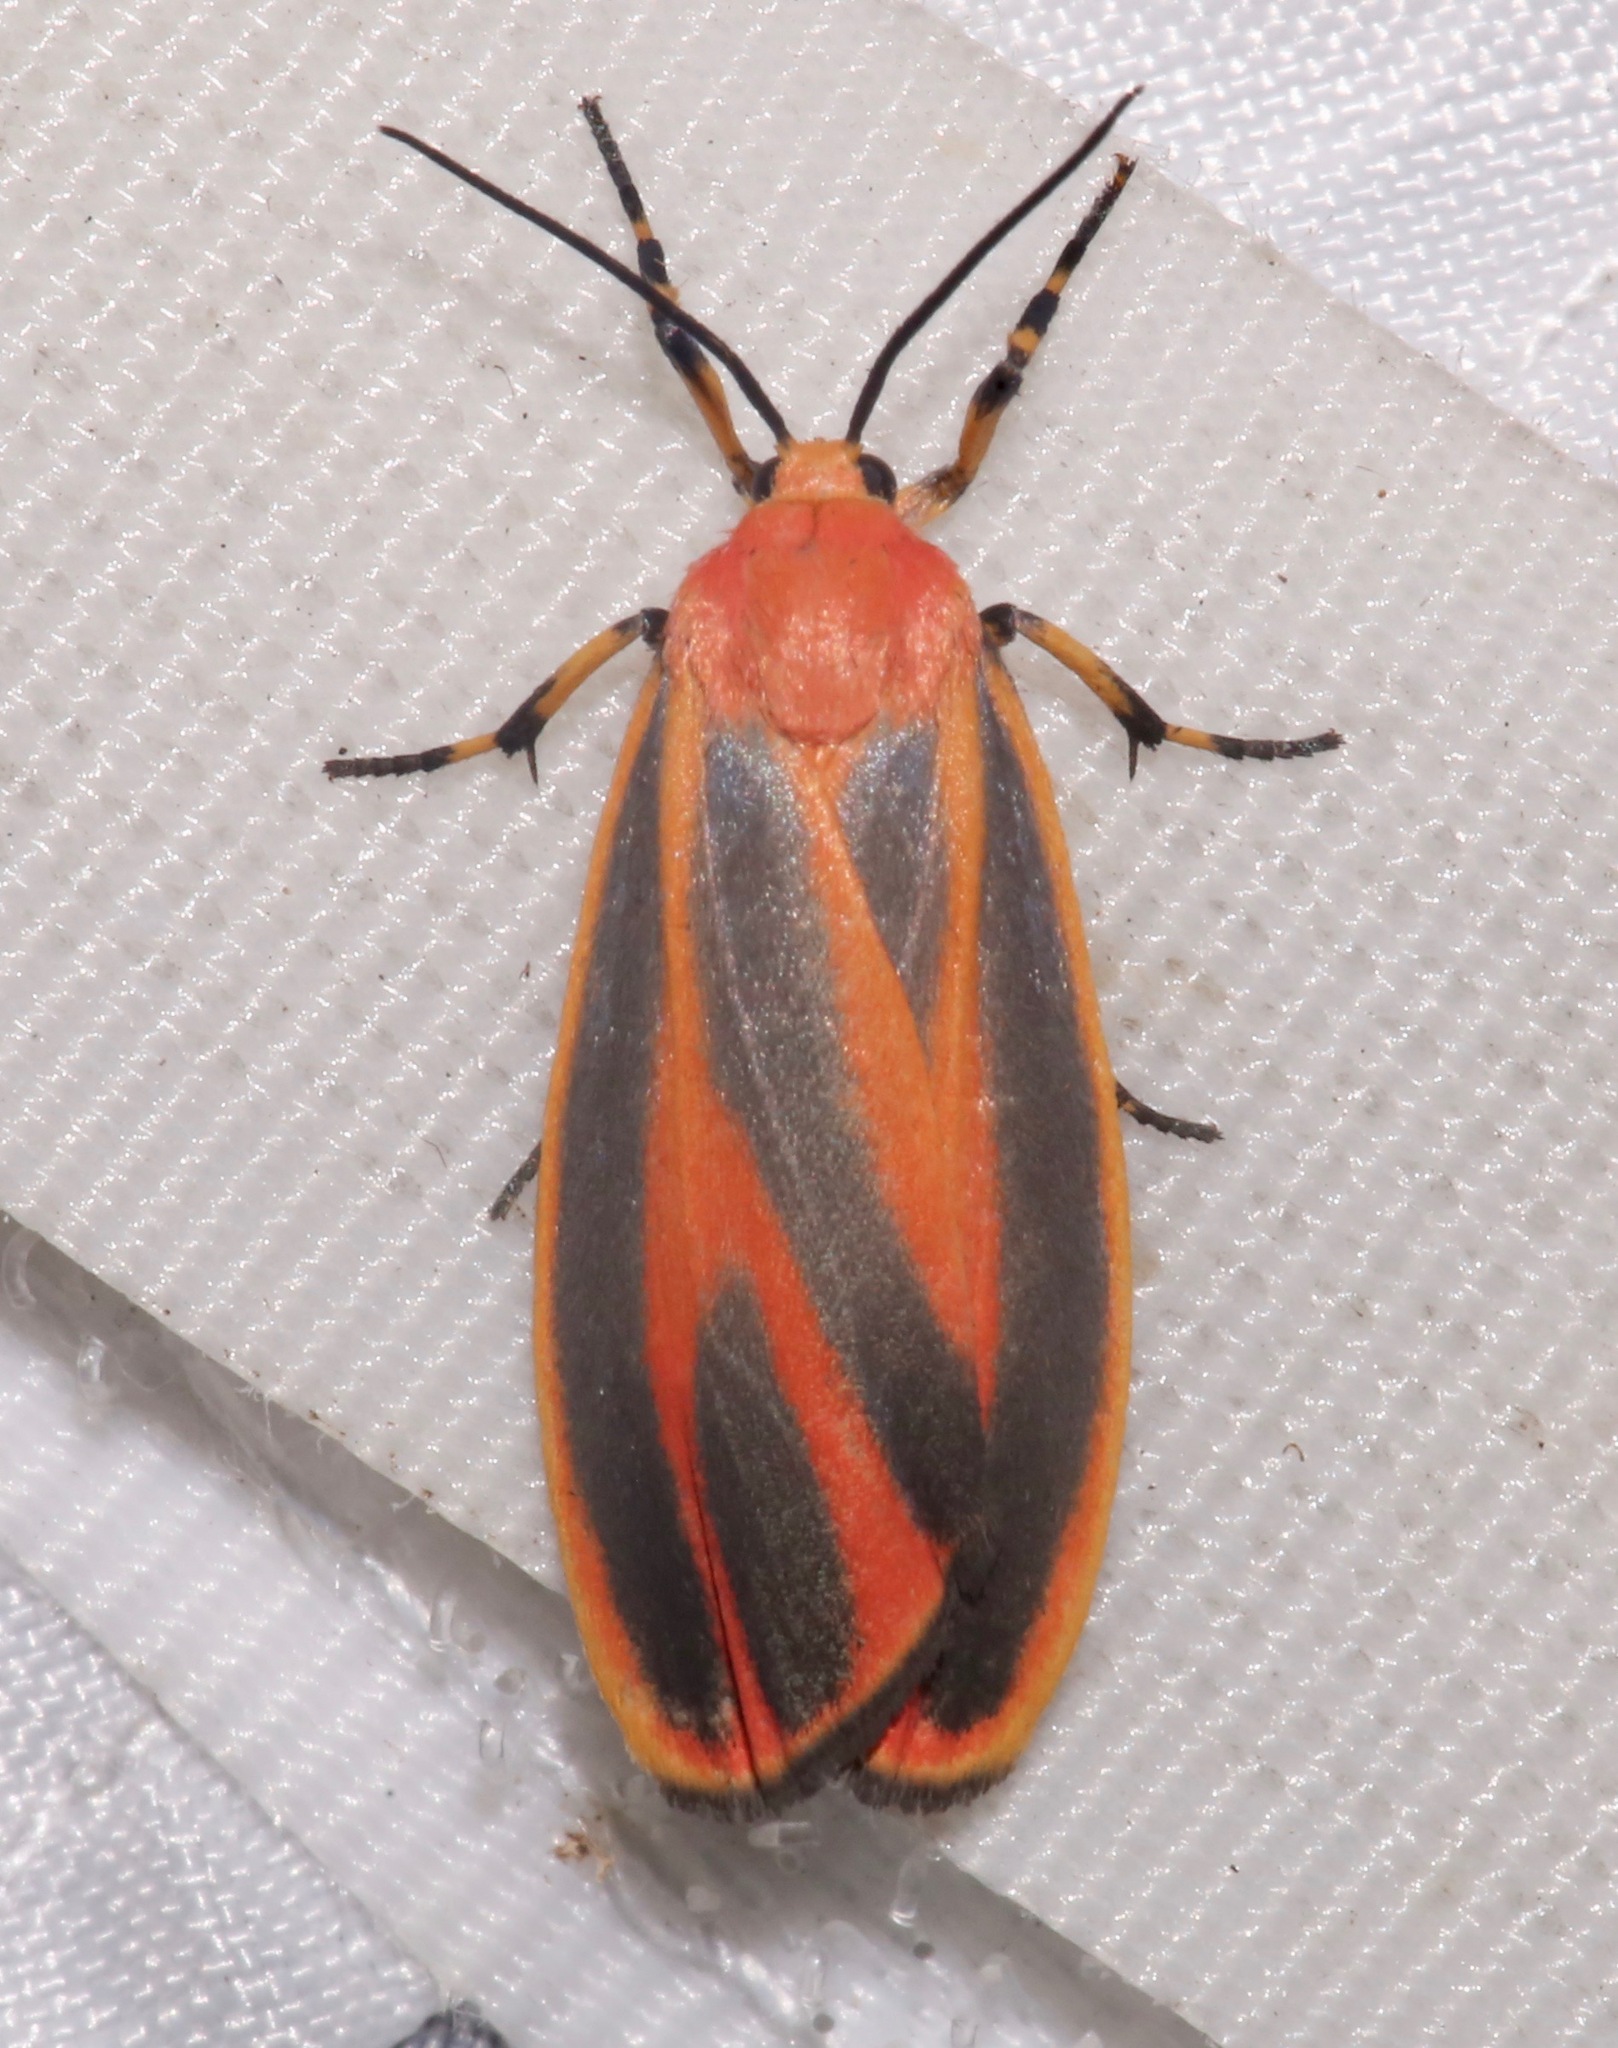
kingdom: Animalia
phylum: Arthropoda
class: Insecta
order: Lepidoptera
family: Erebidae
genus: Hypoprepia
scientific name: Hypoprepia miniata
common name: Scarlet-winged lichen moth
